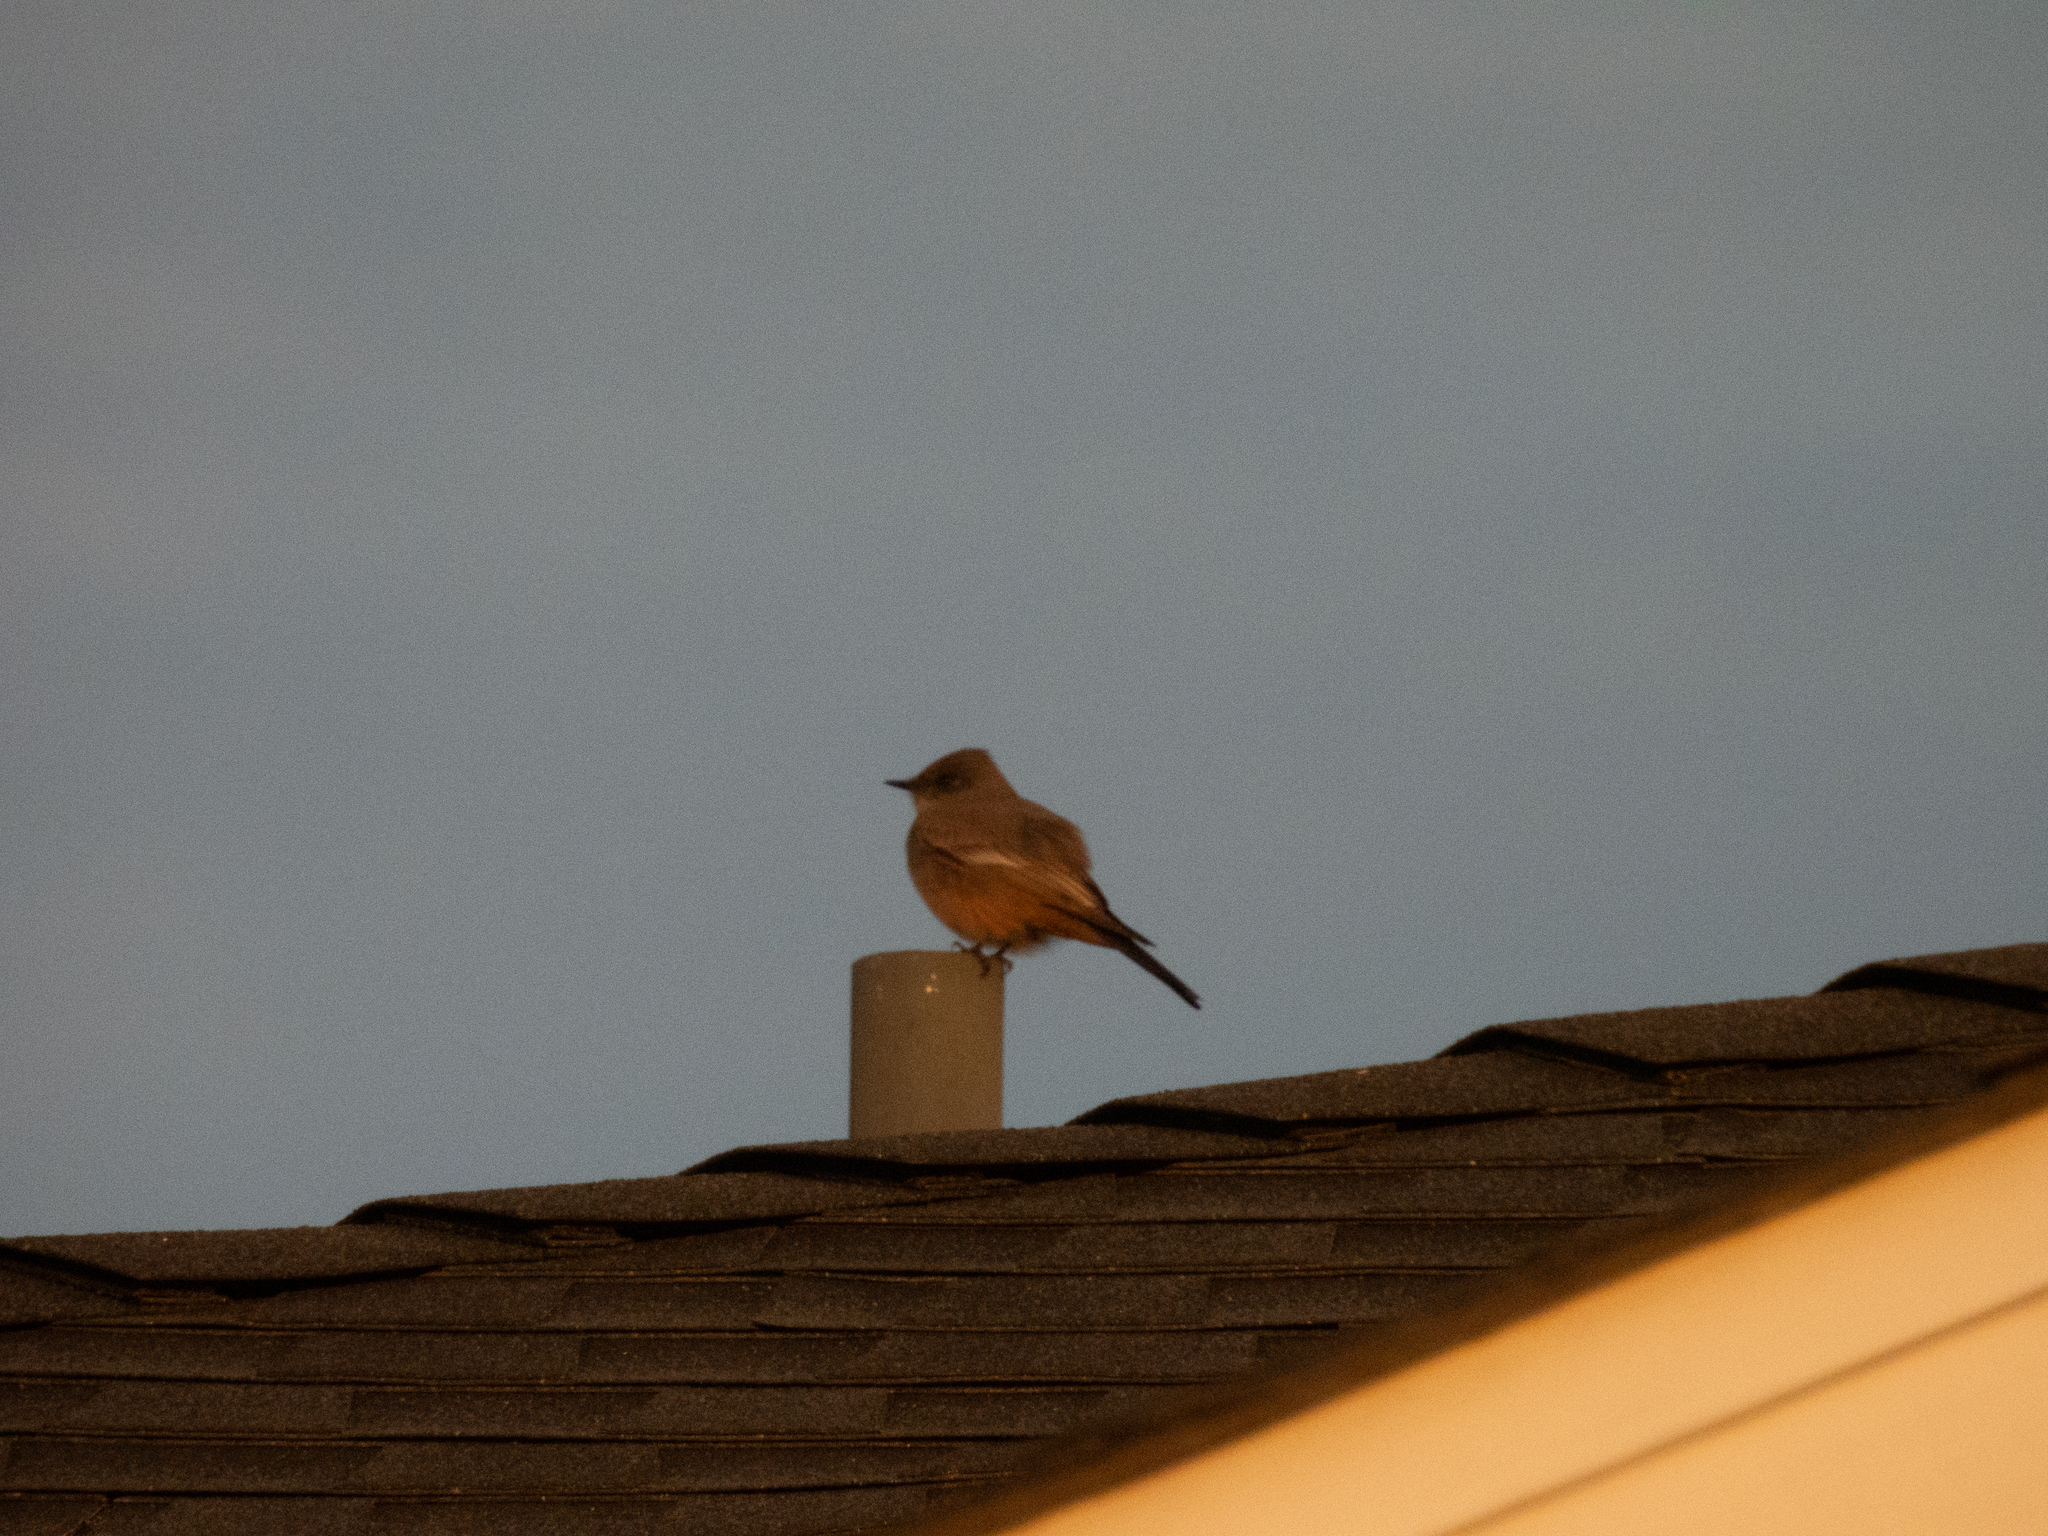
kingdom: Animalia
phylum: Chordata
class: Aves
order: Passeriformes
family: Tyrannidae
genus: Sayornis
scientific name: Sayornis saya
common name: Say's phoebe
